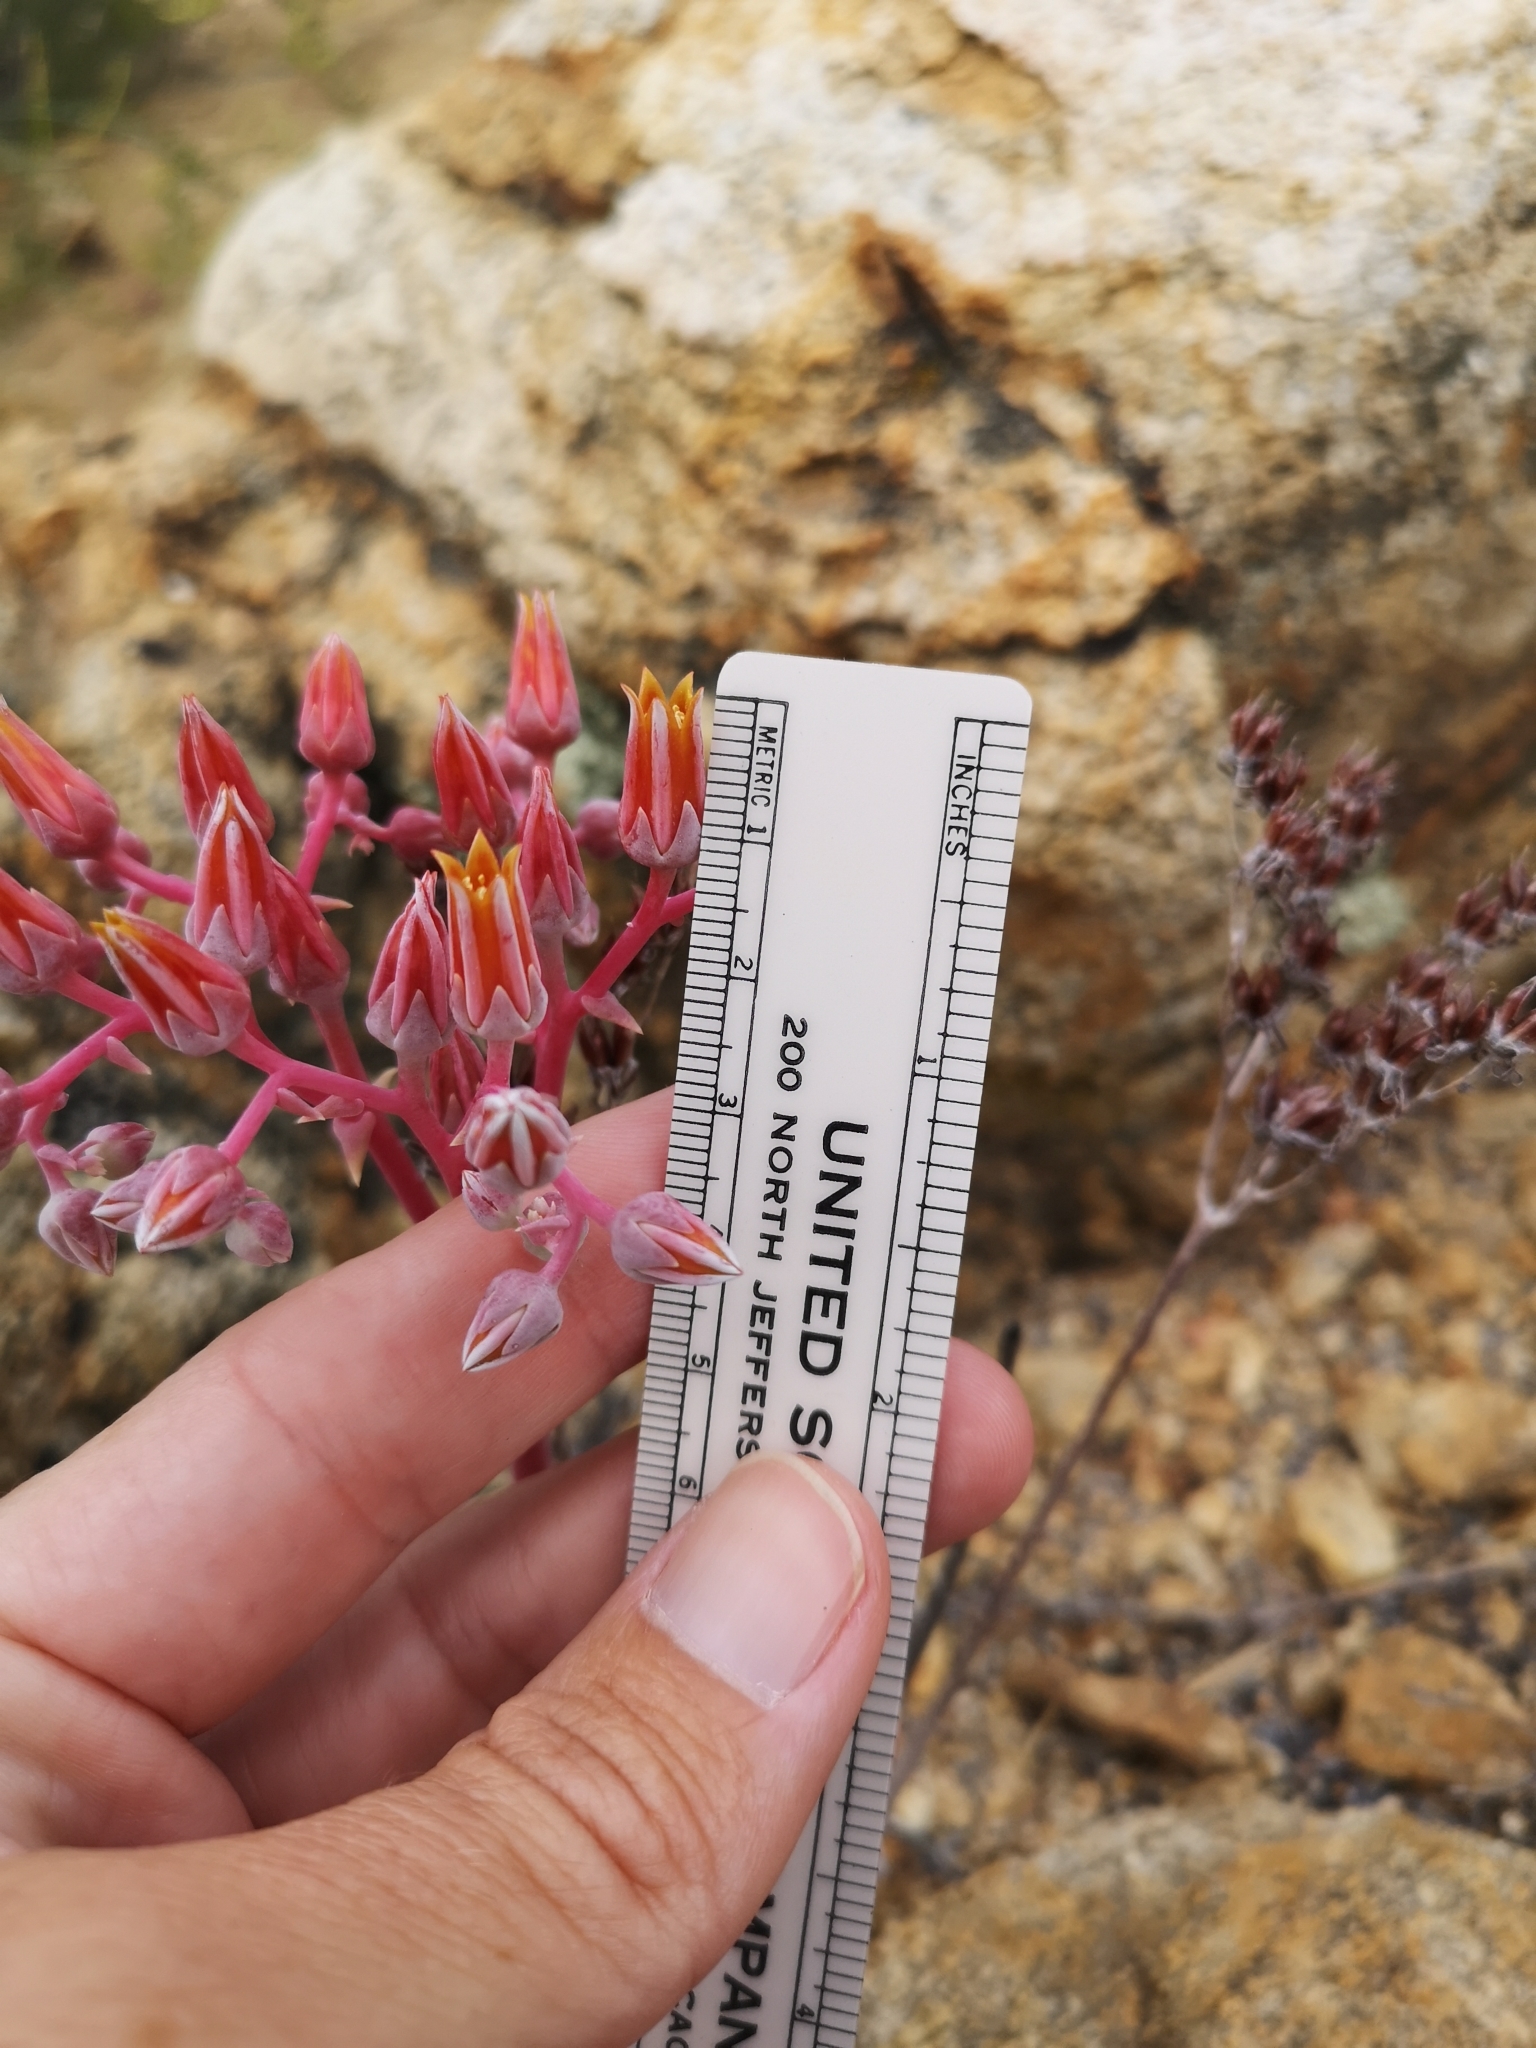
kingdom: Plantae
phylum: Tracheophyta
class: Magnoliopsida
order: Saxifragales
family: Crassulaceae
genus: Dudleya
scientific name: Dudleya lanceolata
